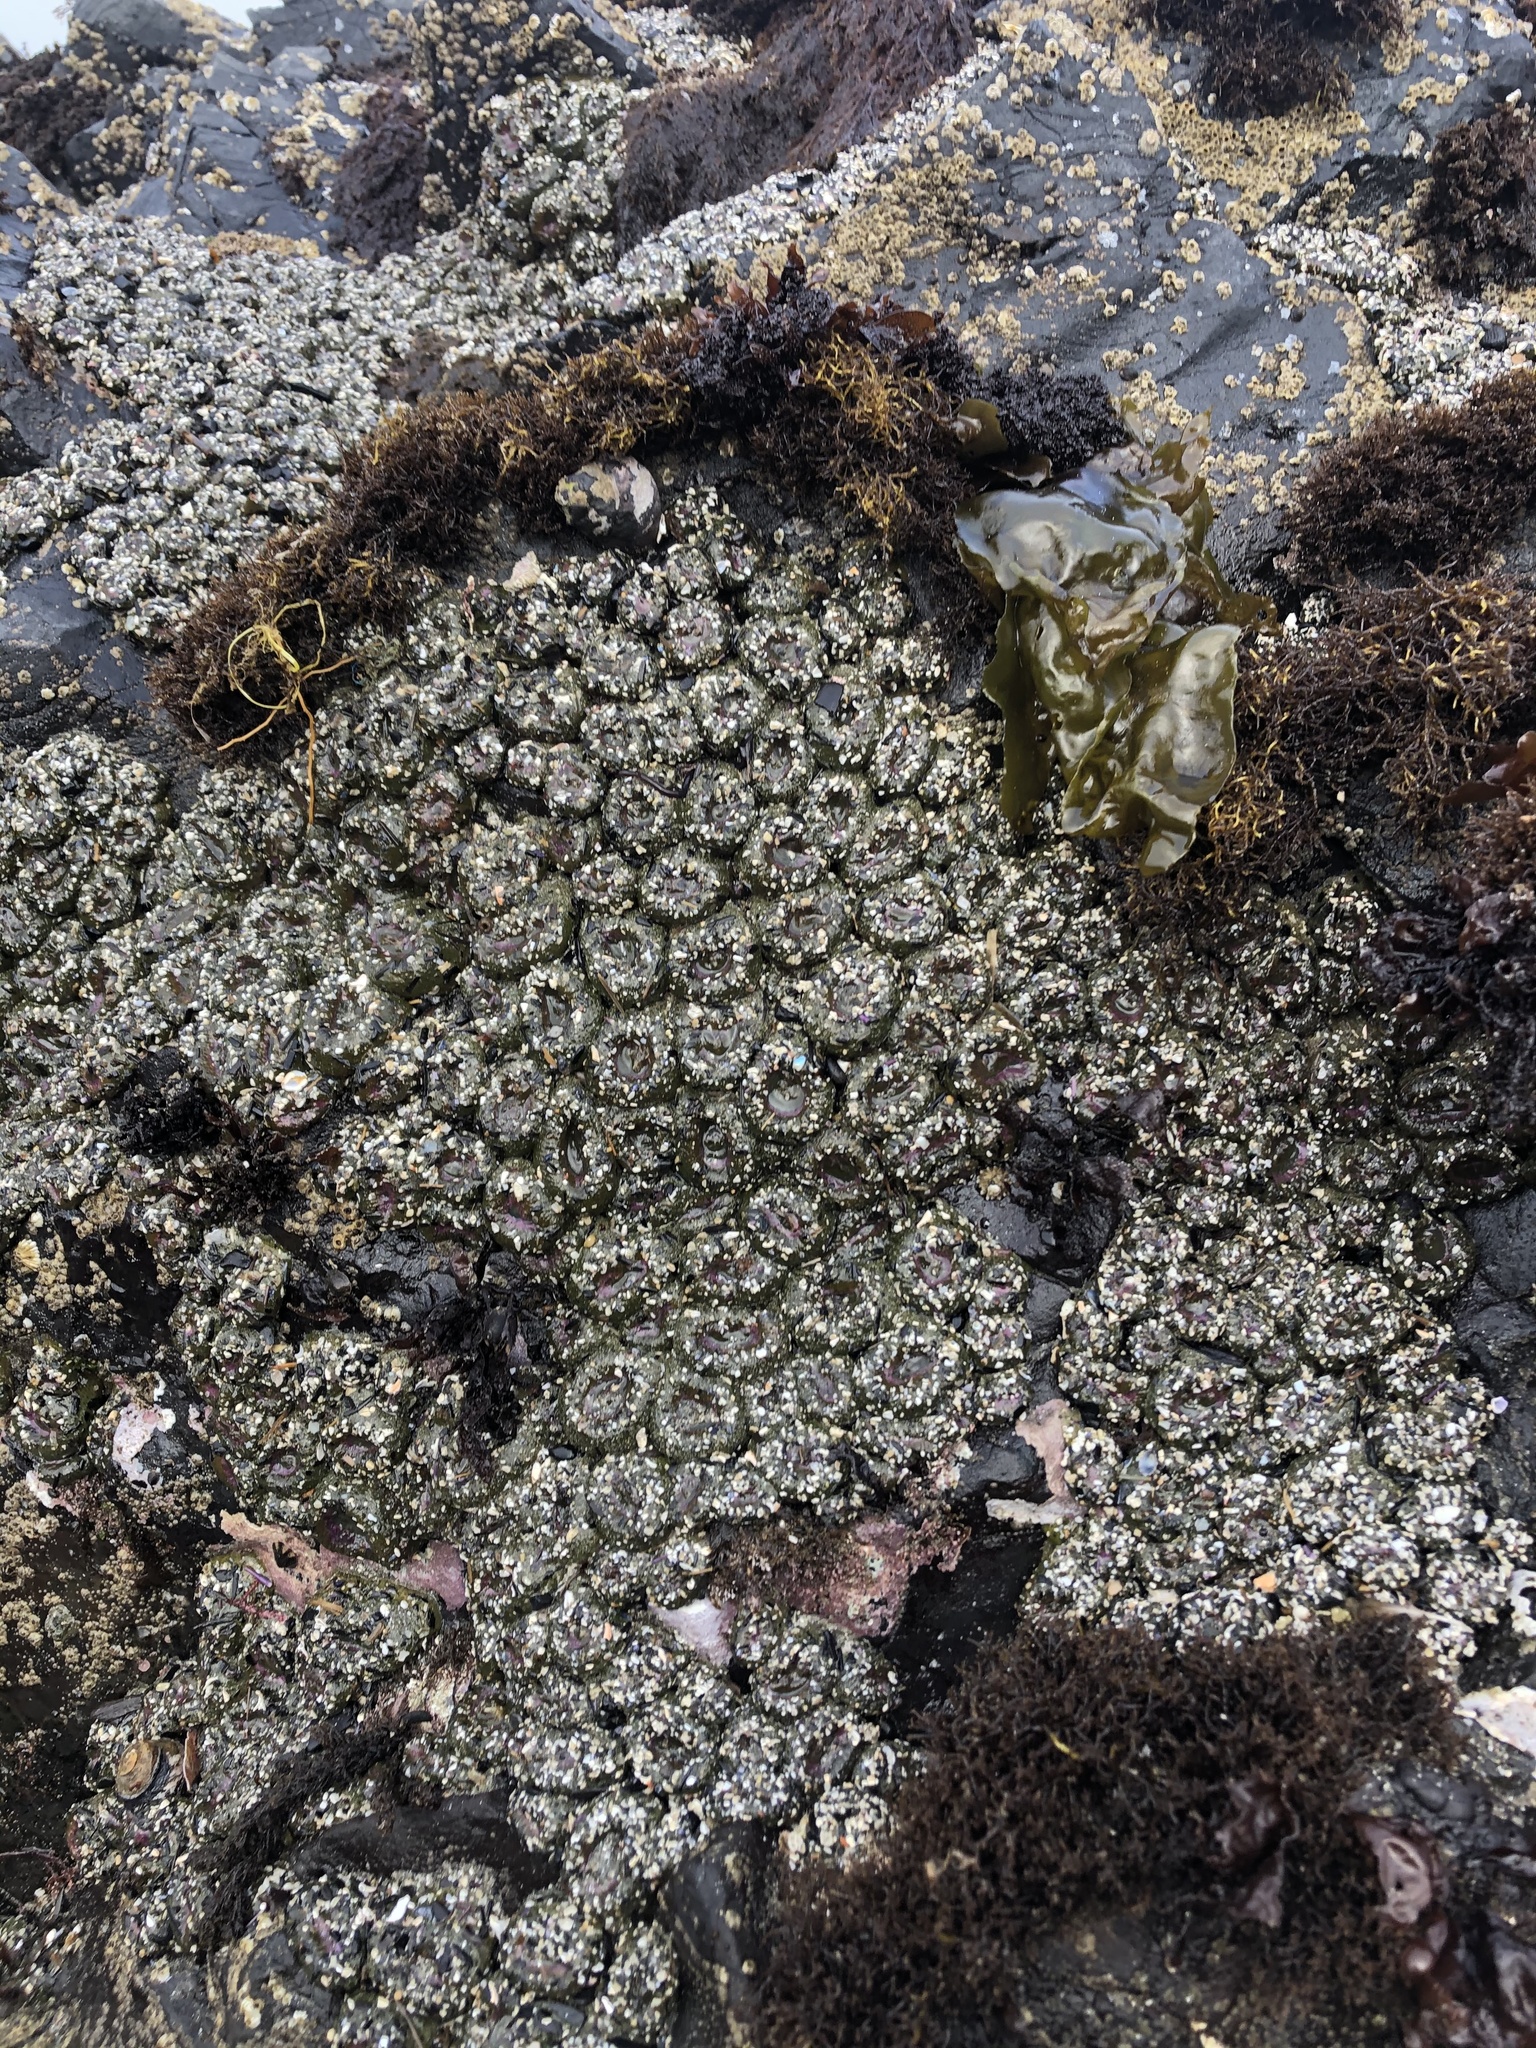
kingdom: Animalia
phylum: Cnidaria
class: Anthozoa
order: Actiniaria
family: Actiniidae
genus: Anthopleura
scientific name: Anthopleura elegantissima
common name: Clonal anemone
